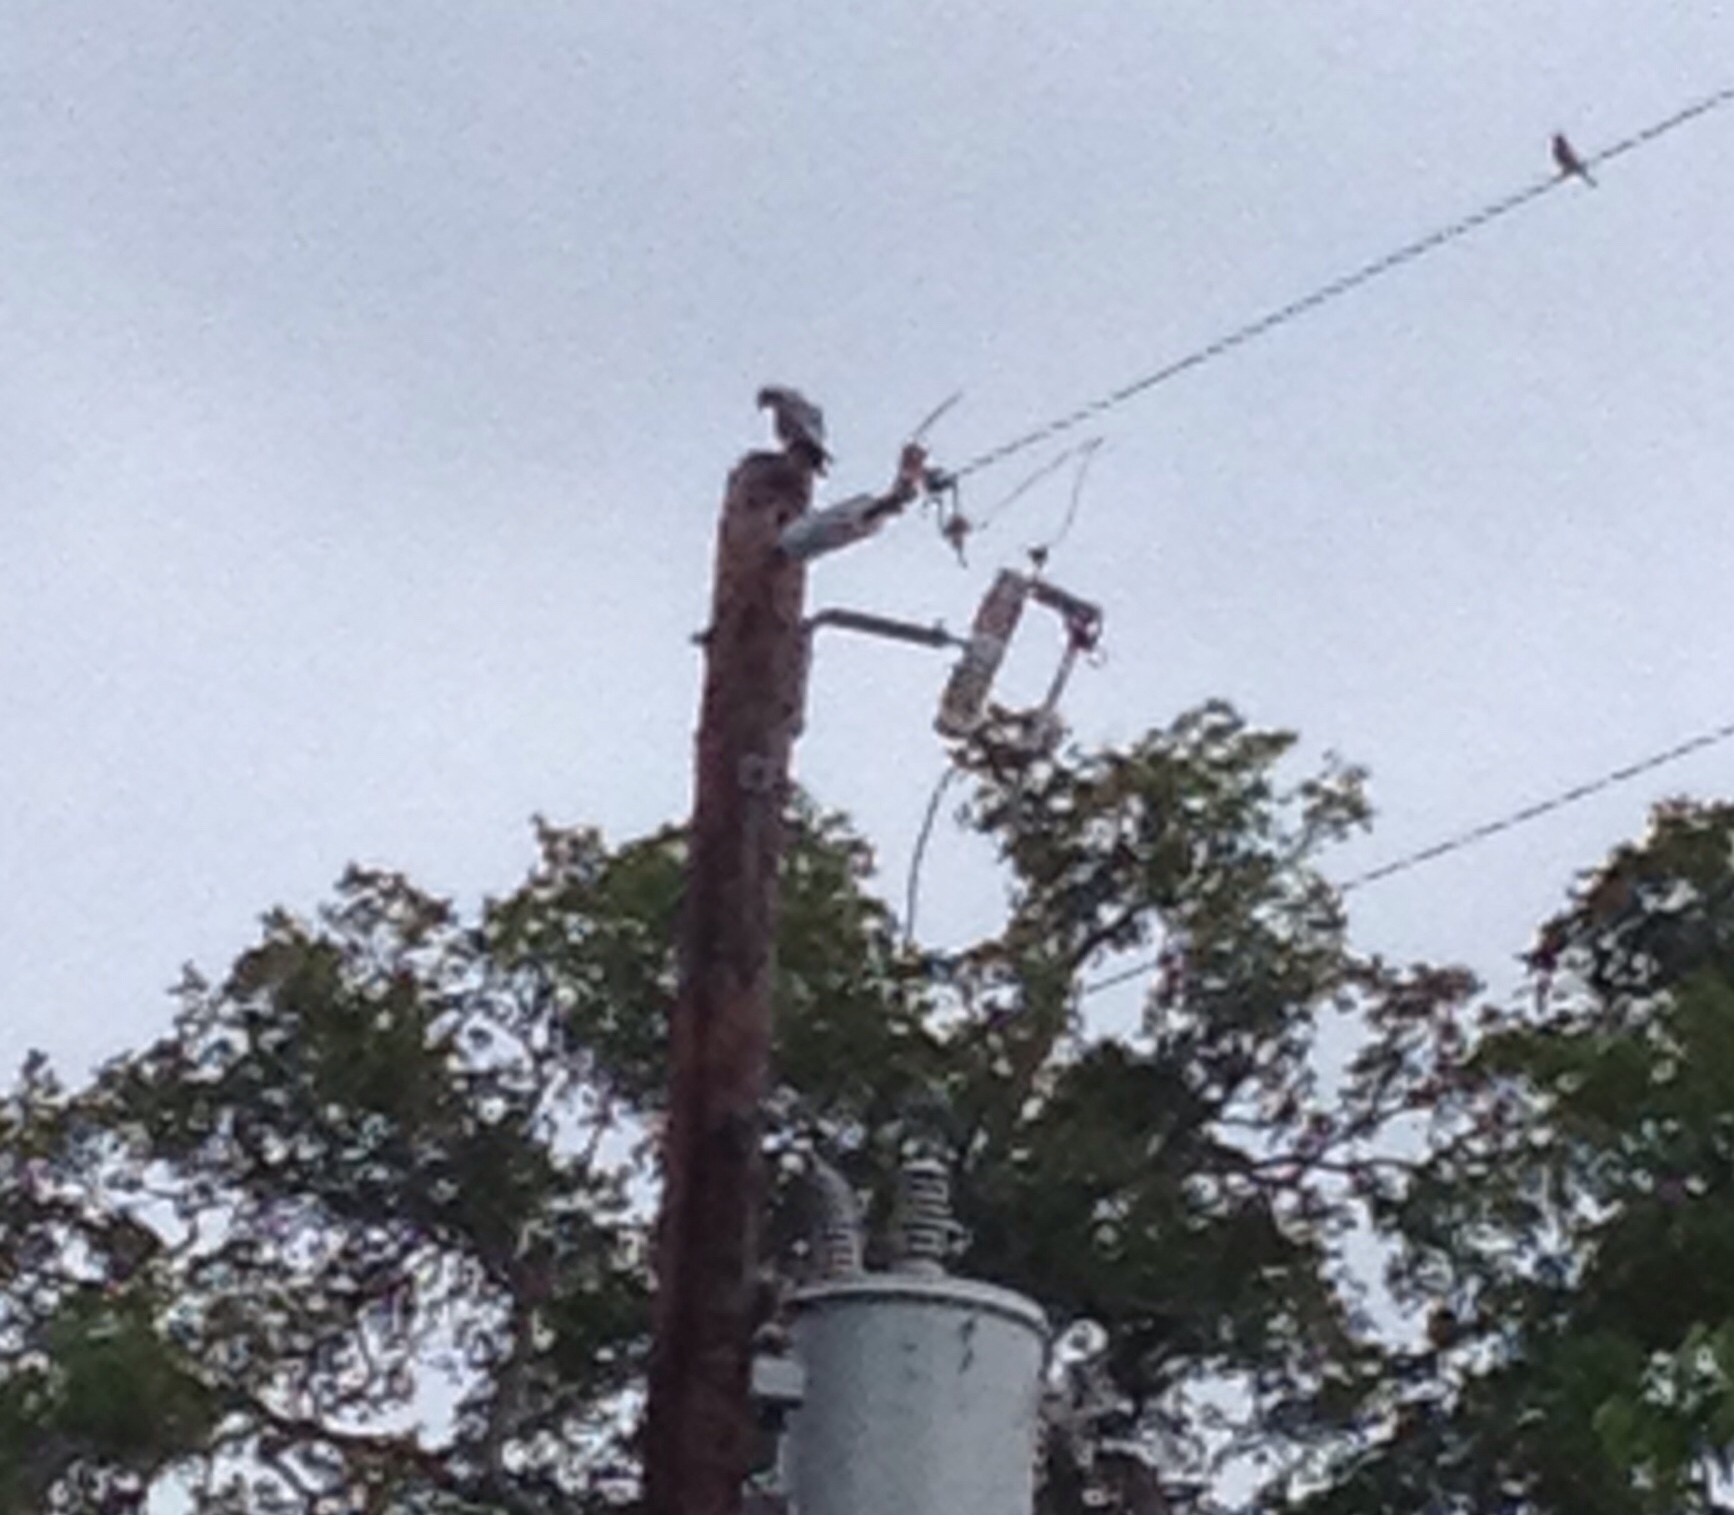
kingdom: Animalia
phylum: Chordata
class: Aves
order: Accipitriformes
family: Accipitridae
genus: Ictinia
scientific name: Ictinia mississippiensis
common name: Mississippi kite
